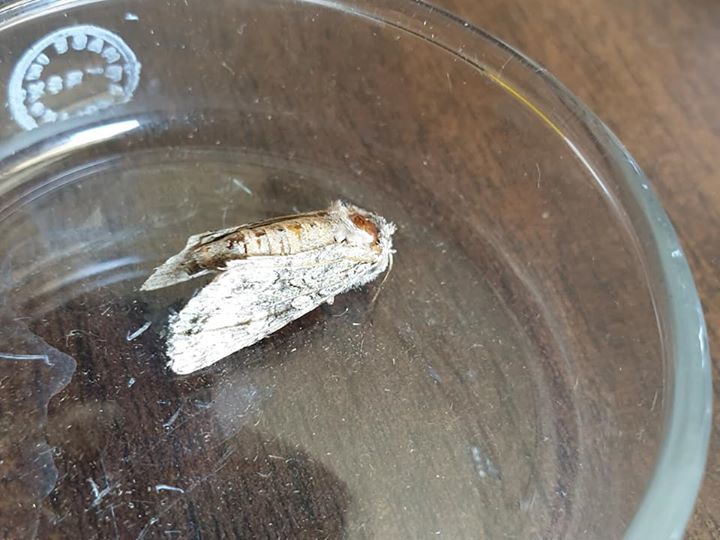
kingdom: Animalia
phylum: Arthropoda
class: Insecta
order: Lepidoptera
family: Noctuidae
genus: Ichneutica
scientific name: Ichneutica mutans
